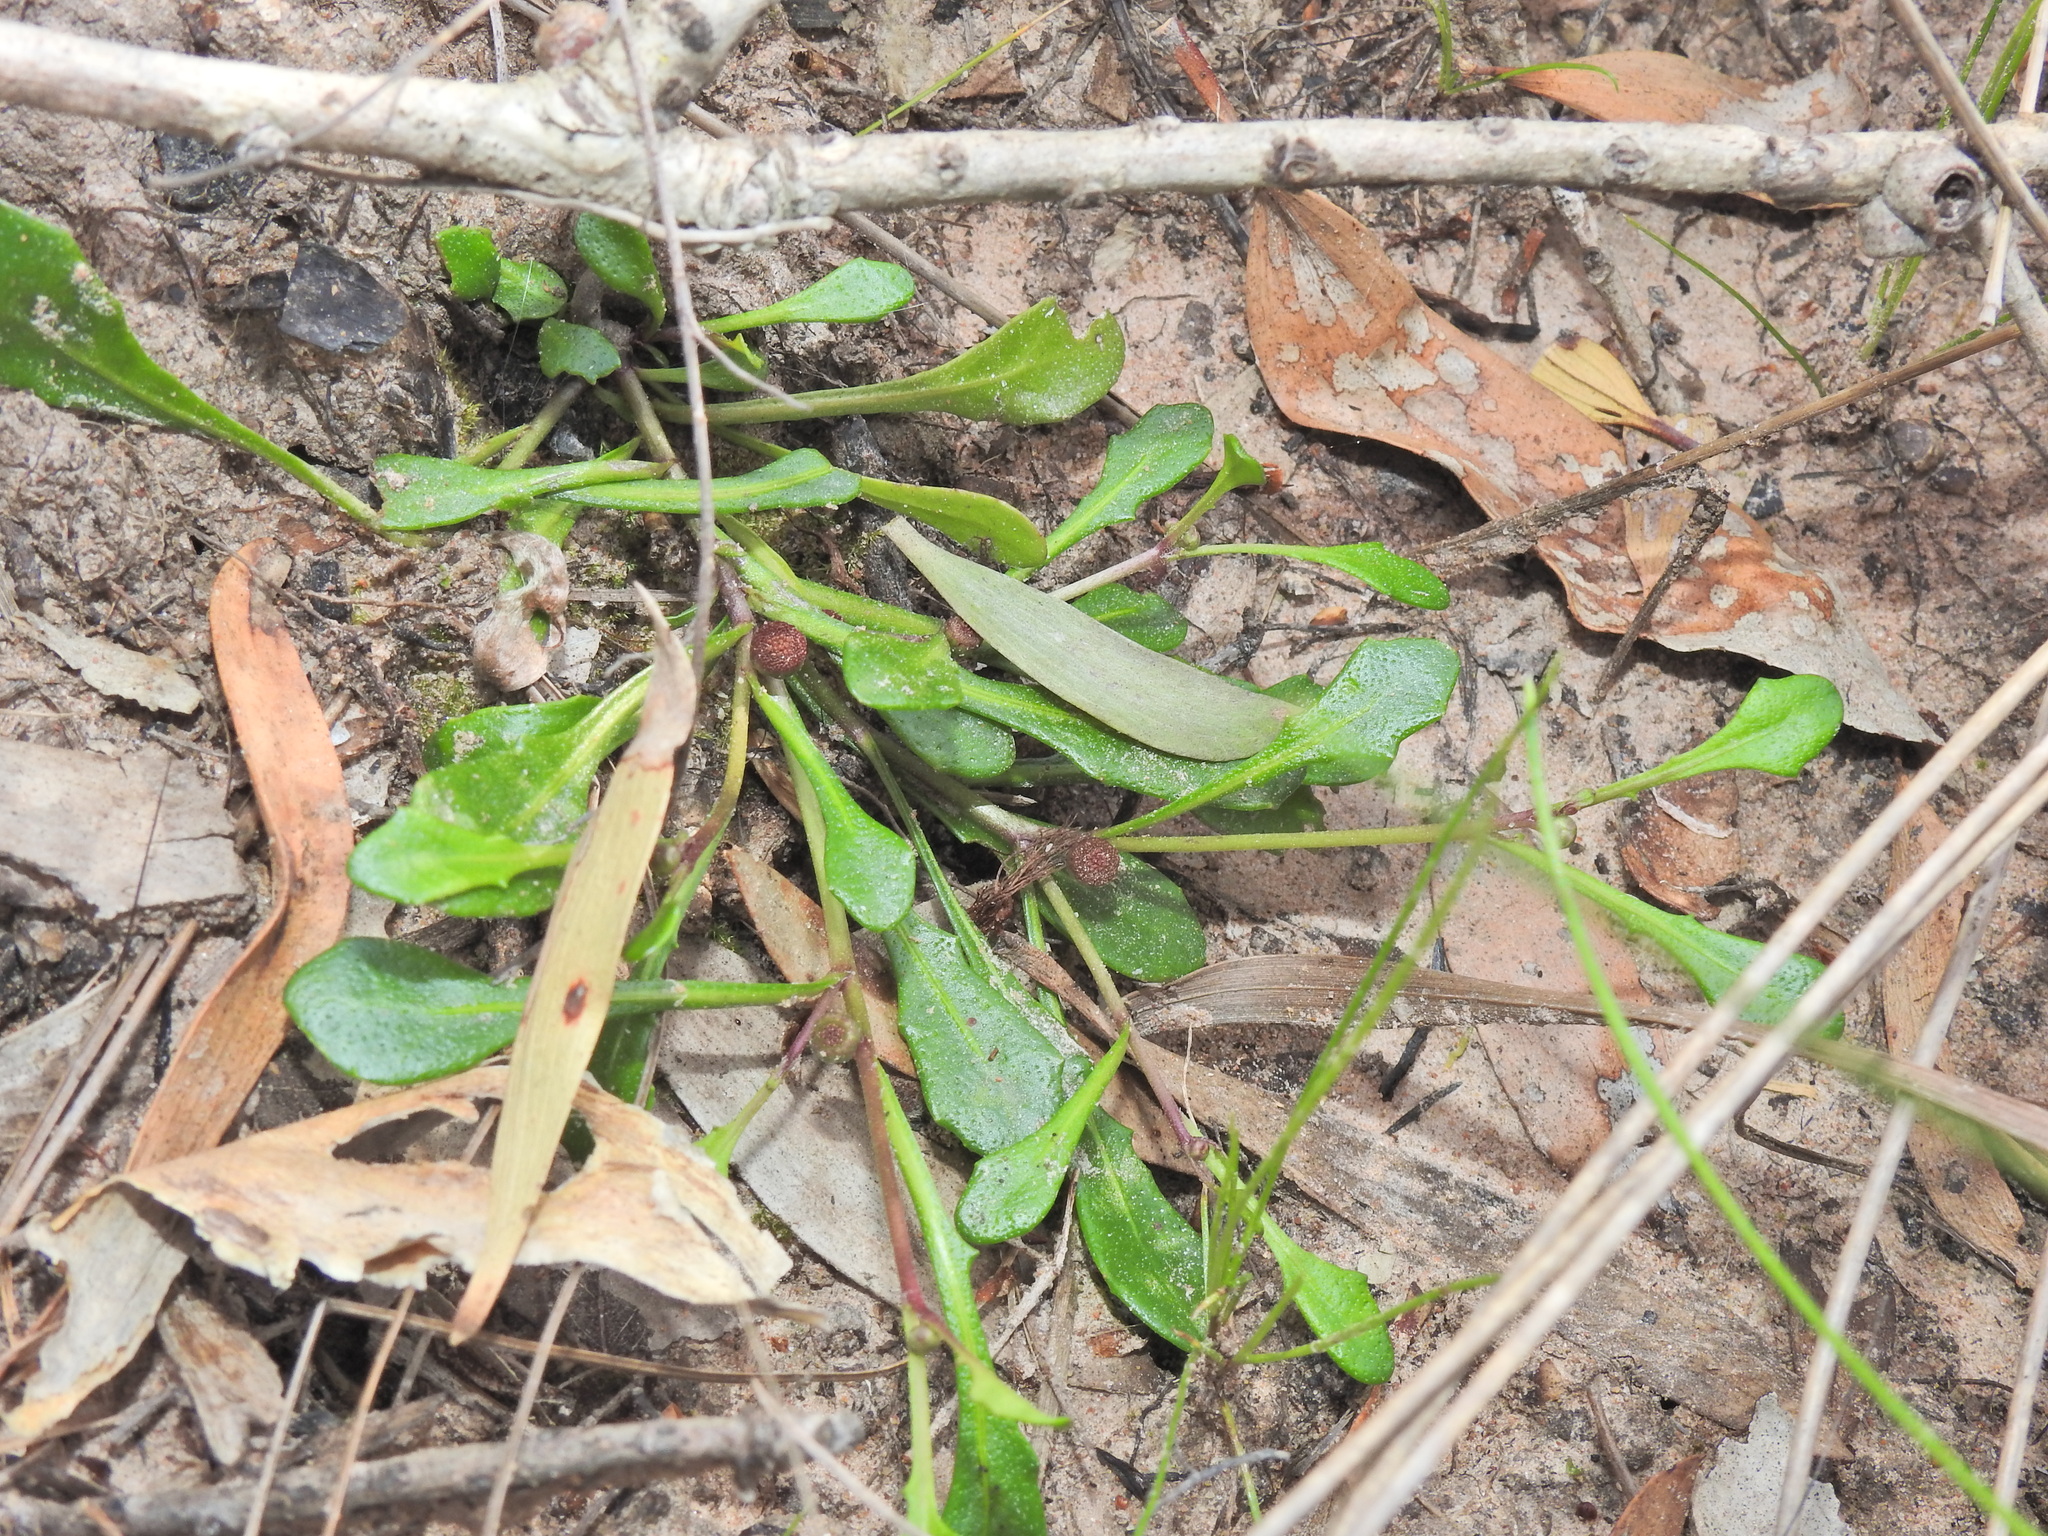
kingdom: Plantae
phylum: Tracheophyta
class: Magnoliopsida
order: Asterales
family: Asteraceae
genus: Sphaeromorphaea
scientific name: Sphaeromorphaea australis
